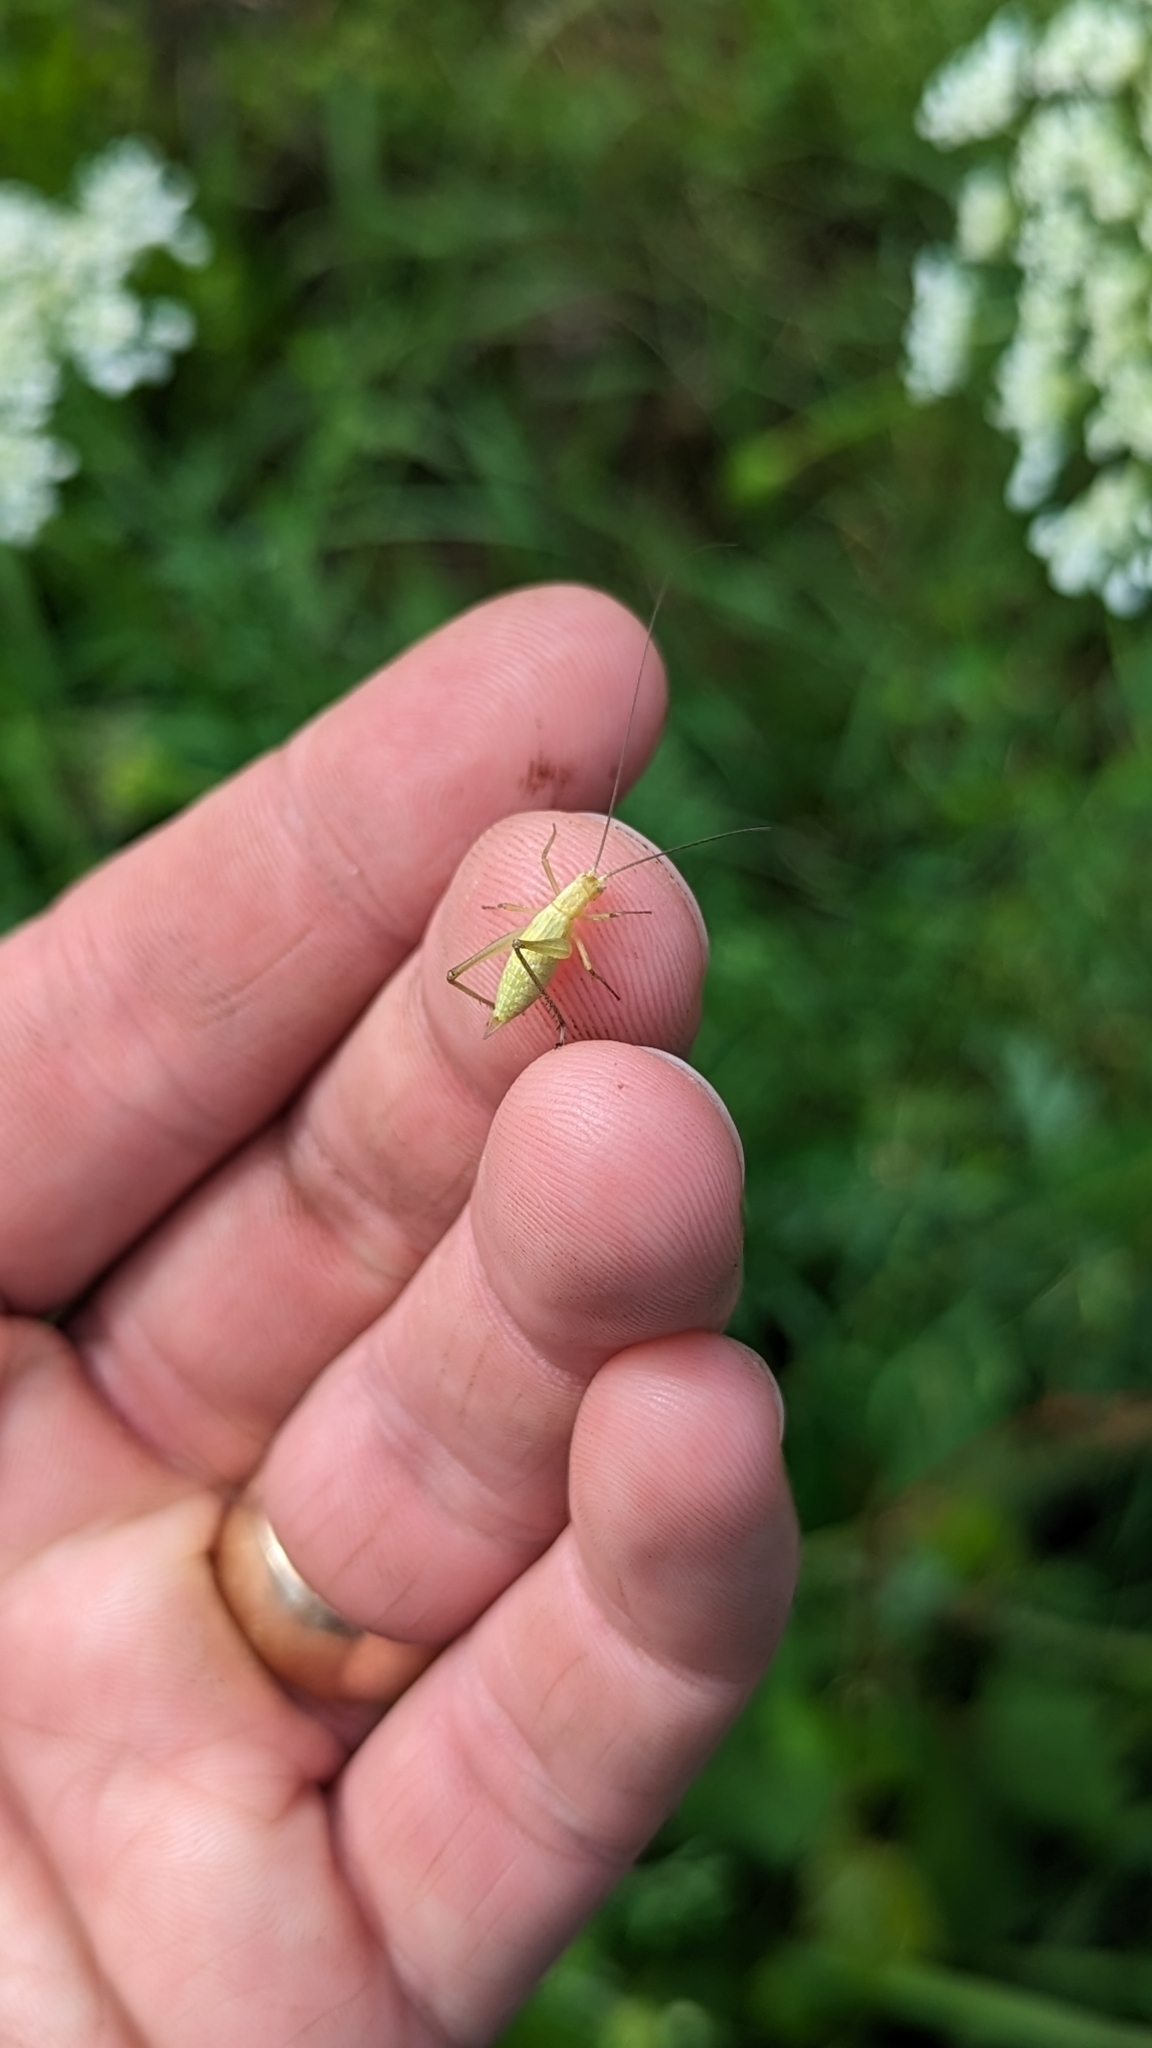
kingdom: Animalia
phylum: Arthropoda
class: Insecta
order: Orthoptera
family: Gryllidae
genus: Oecanthus
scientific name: Oecanthus
